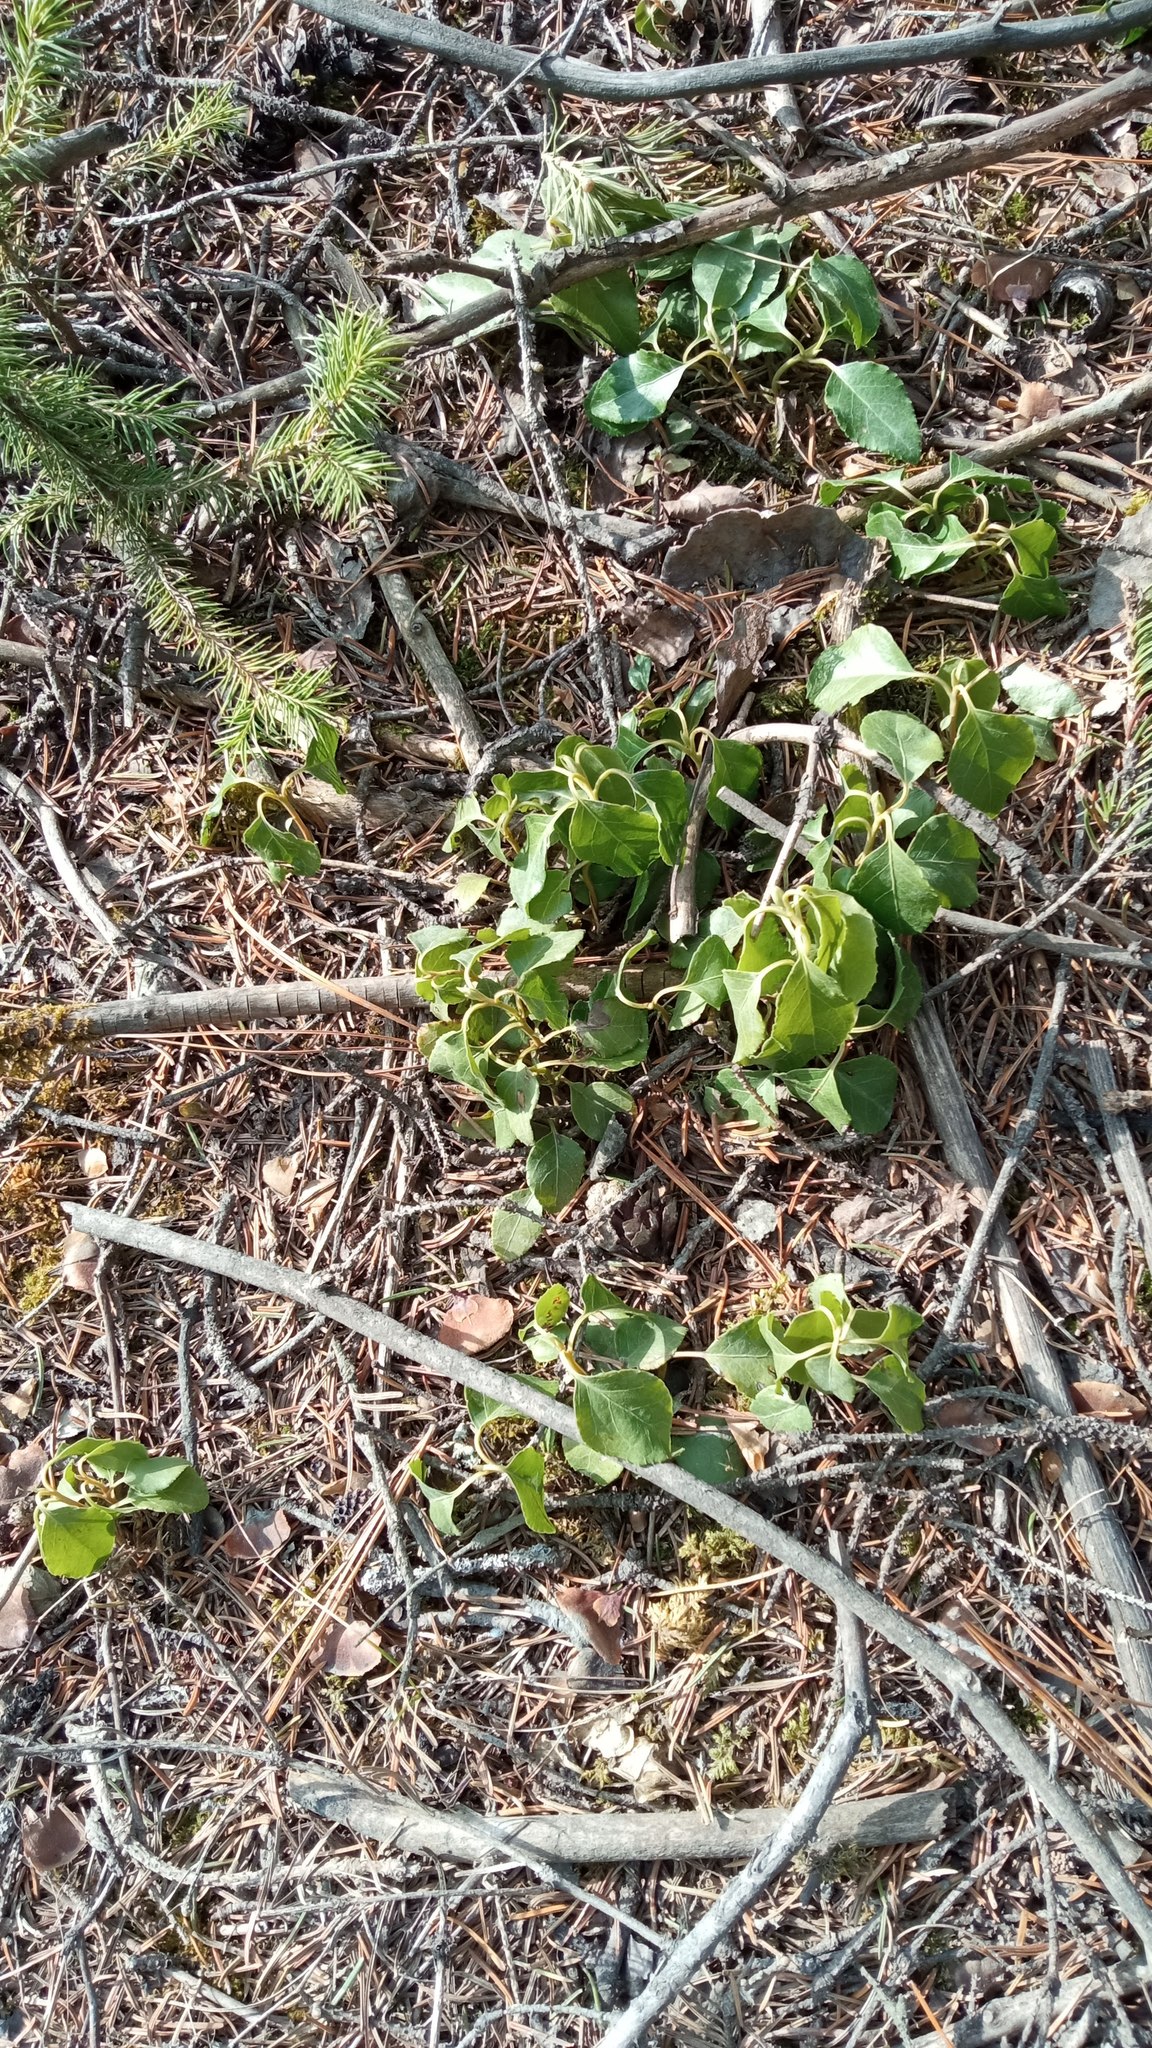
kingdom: Plantae
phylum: Tracheophyta
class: Magnoliopsida
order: Ericales
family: Ericaceae
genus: Orthilia
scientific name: Orthilia secunda
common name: One-sided orthilia
